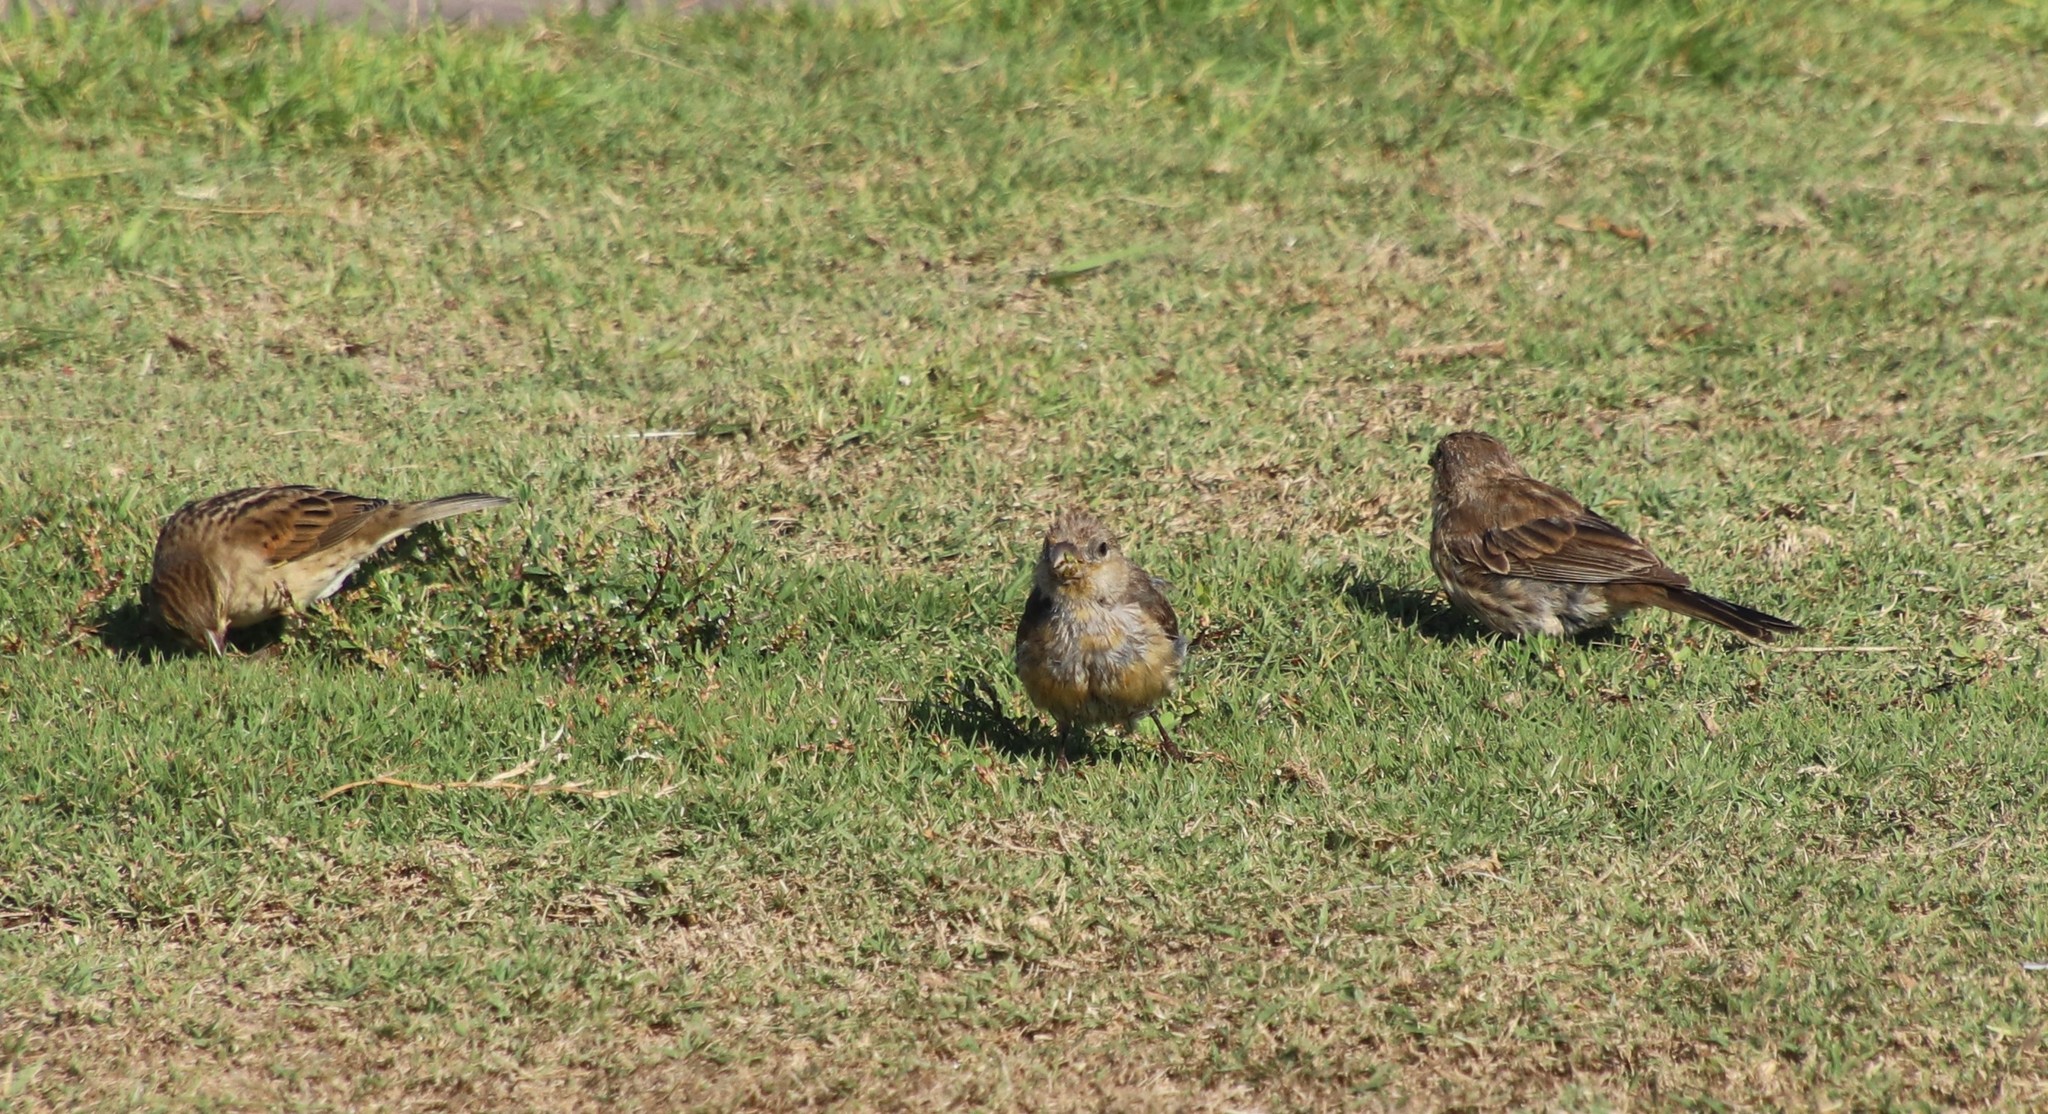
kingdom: Animalia
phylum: Chordata
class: Aves
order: Passeriformes
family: Fringillidae
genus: Haemorhous
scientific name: Haemorhous mexicanus
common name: House finch
